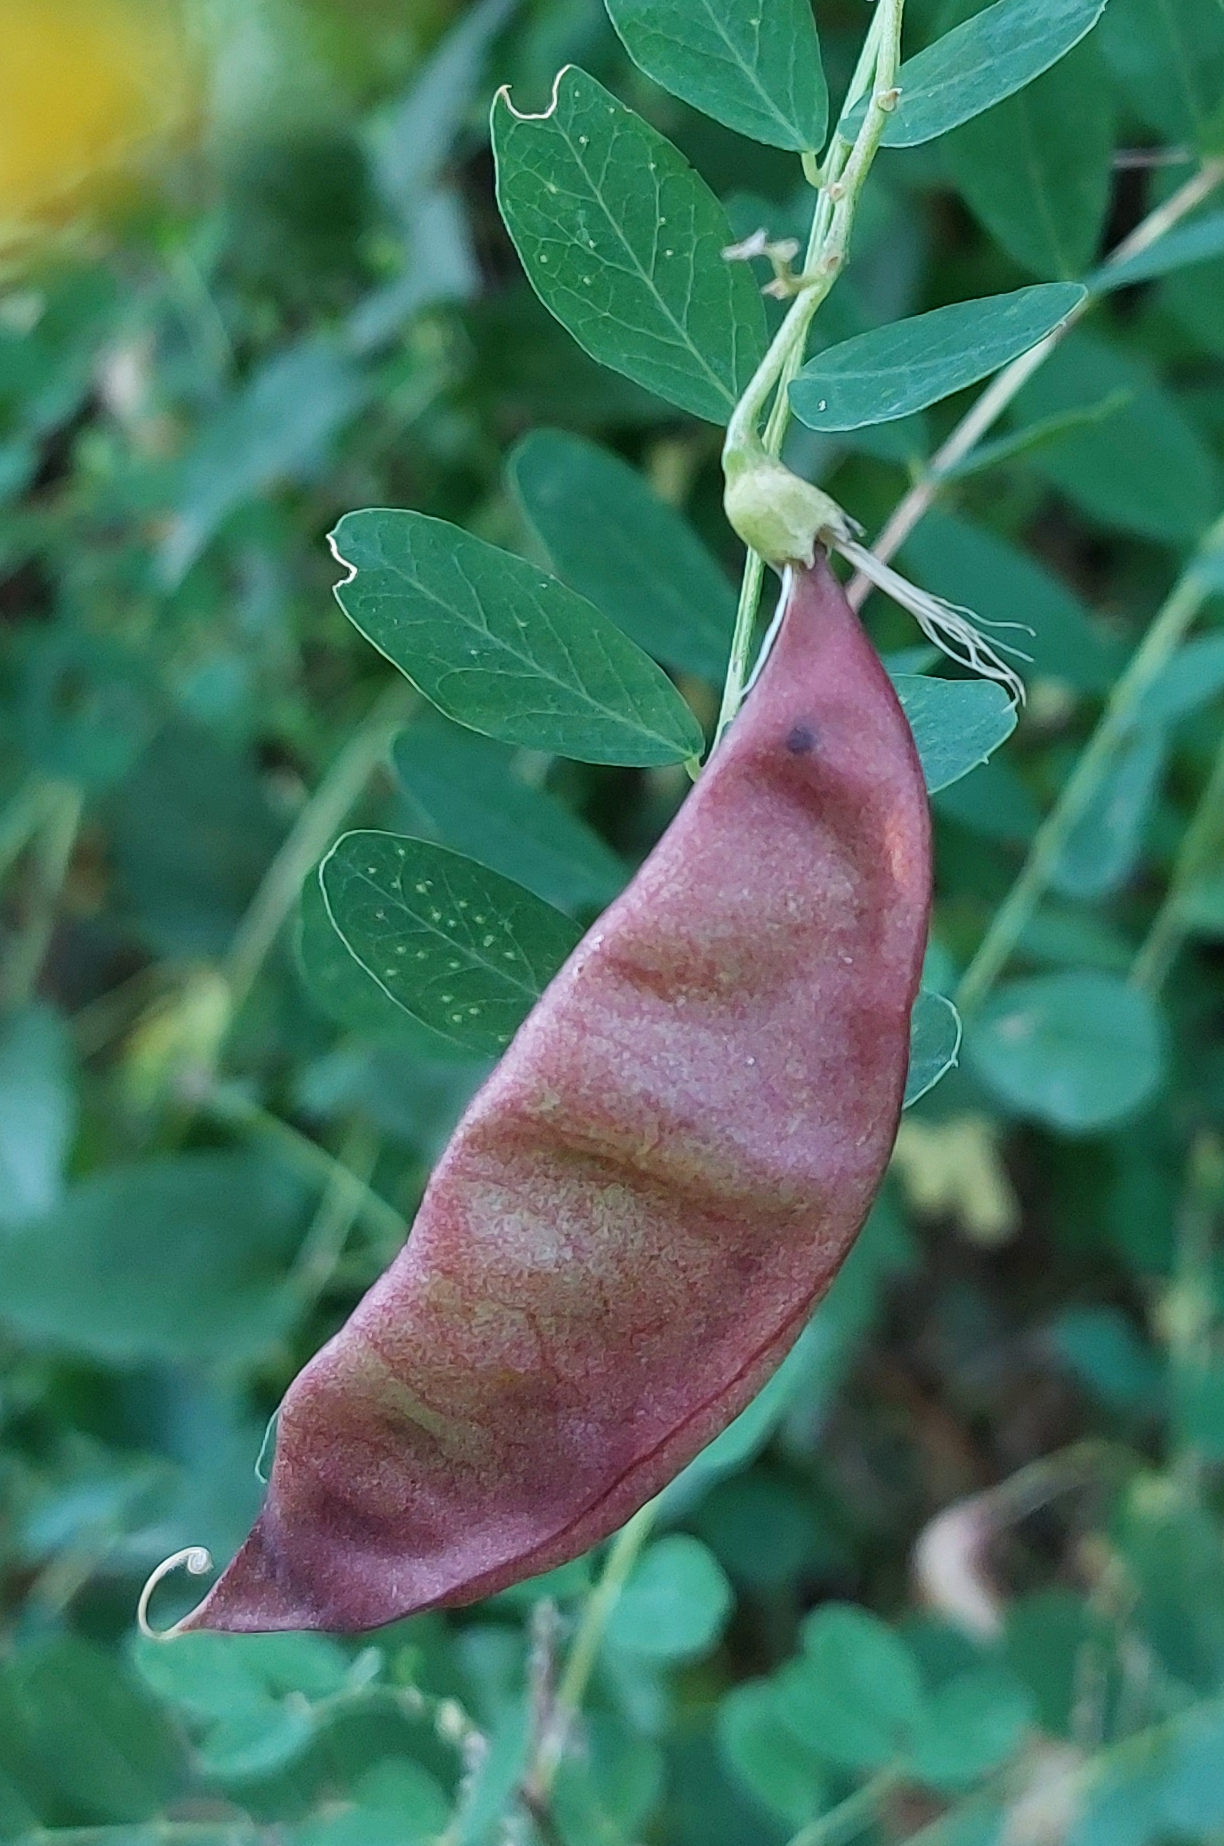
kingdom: Plantae
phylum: Tracheophyta
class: Magnoliopsida
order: Fabales
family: Fabaceae
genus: Colutea
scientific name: Colutea arborescens
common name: Bladder-senna
